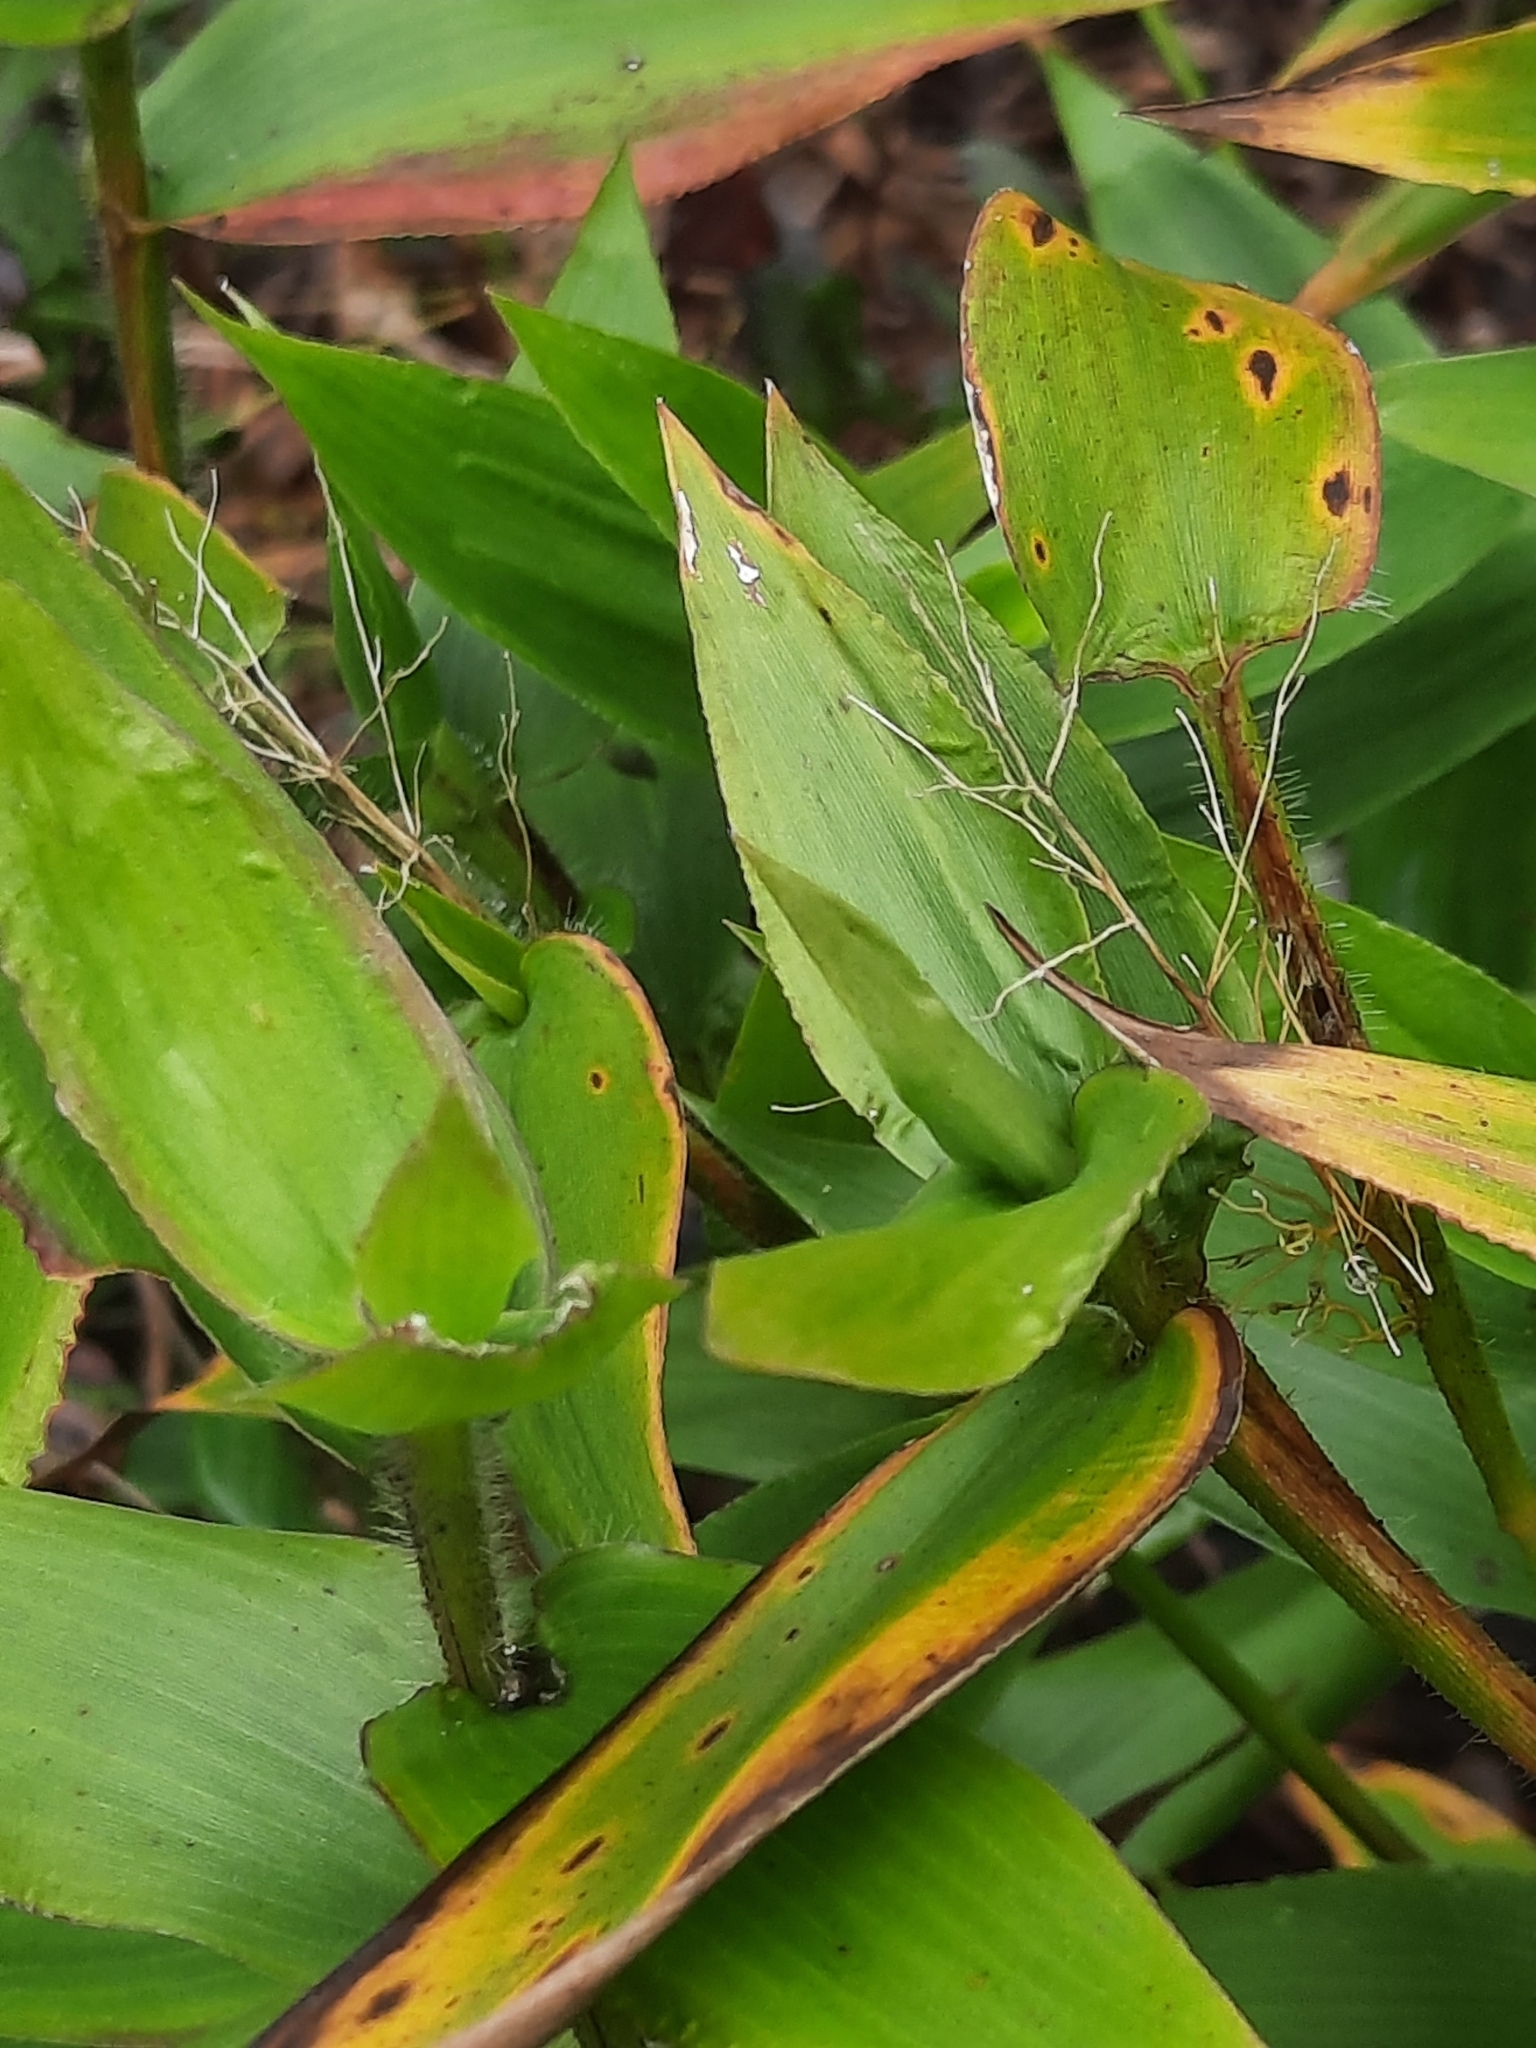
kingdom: Plantae
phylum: Tracheophyta
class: Liliopsida
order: Poales
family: Poaceae
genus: Dichanthelium
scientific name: Dichanthelium clandestinum
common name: Deer-tongue grass
